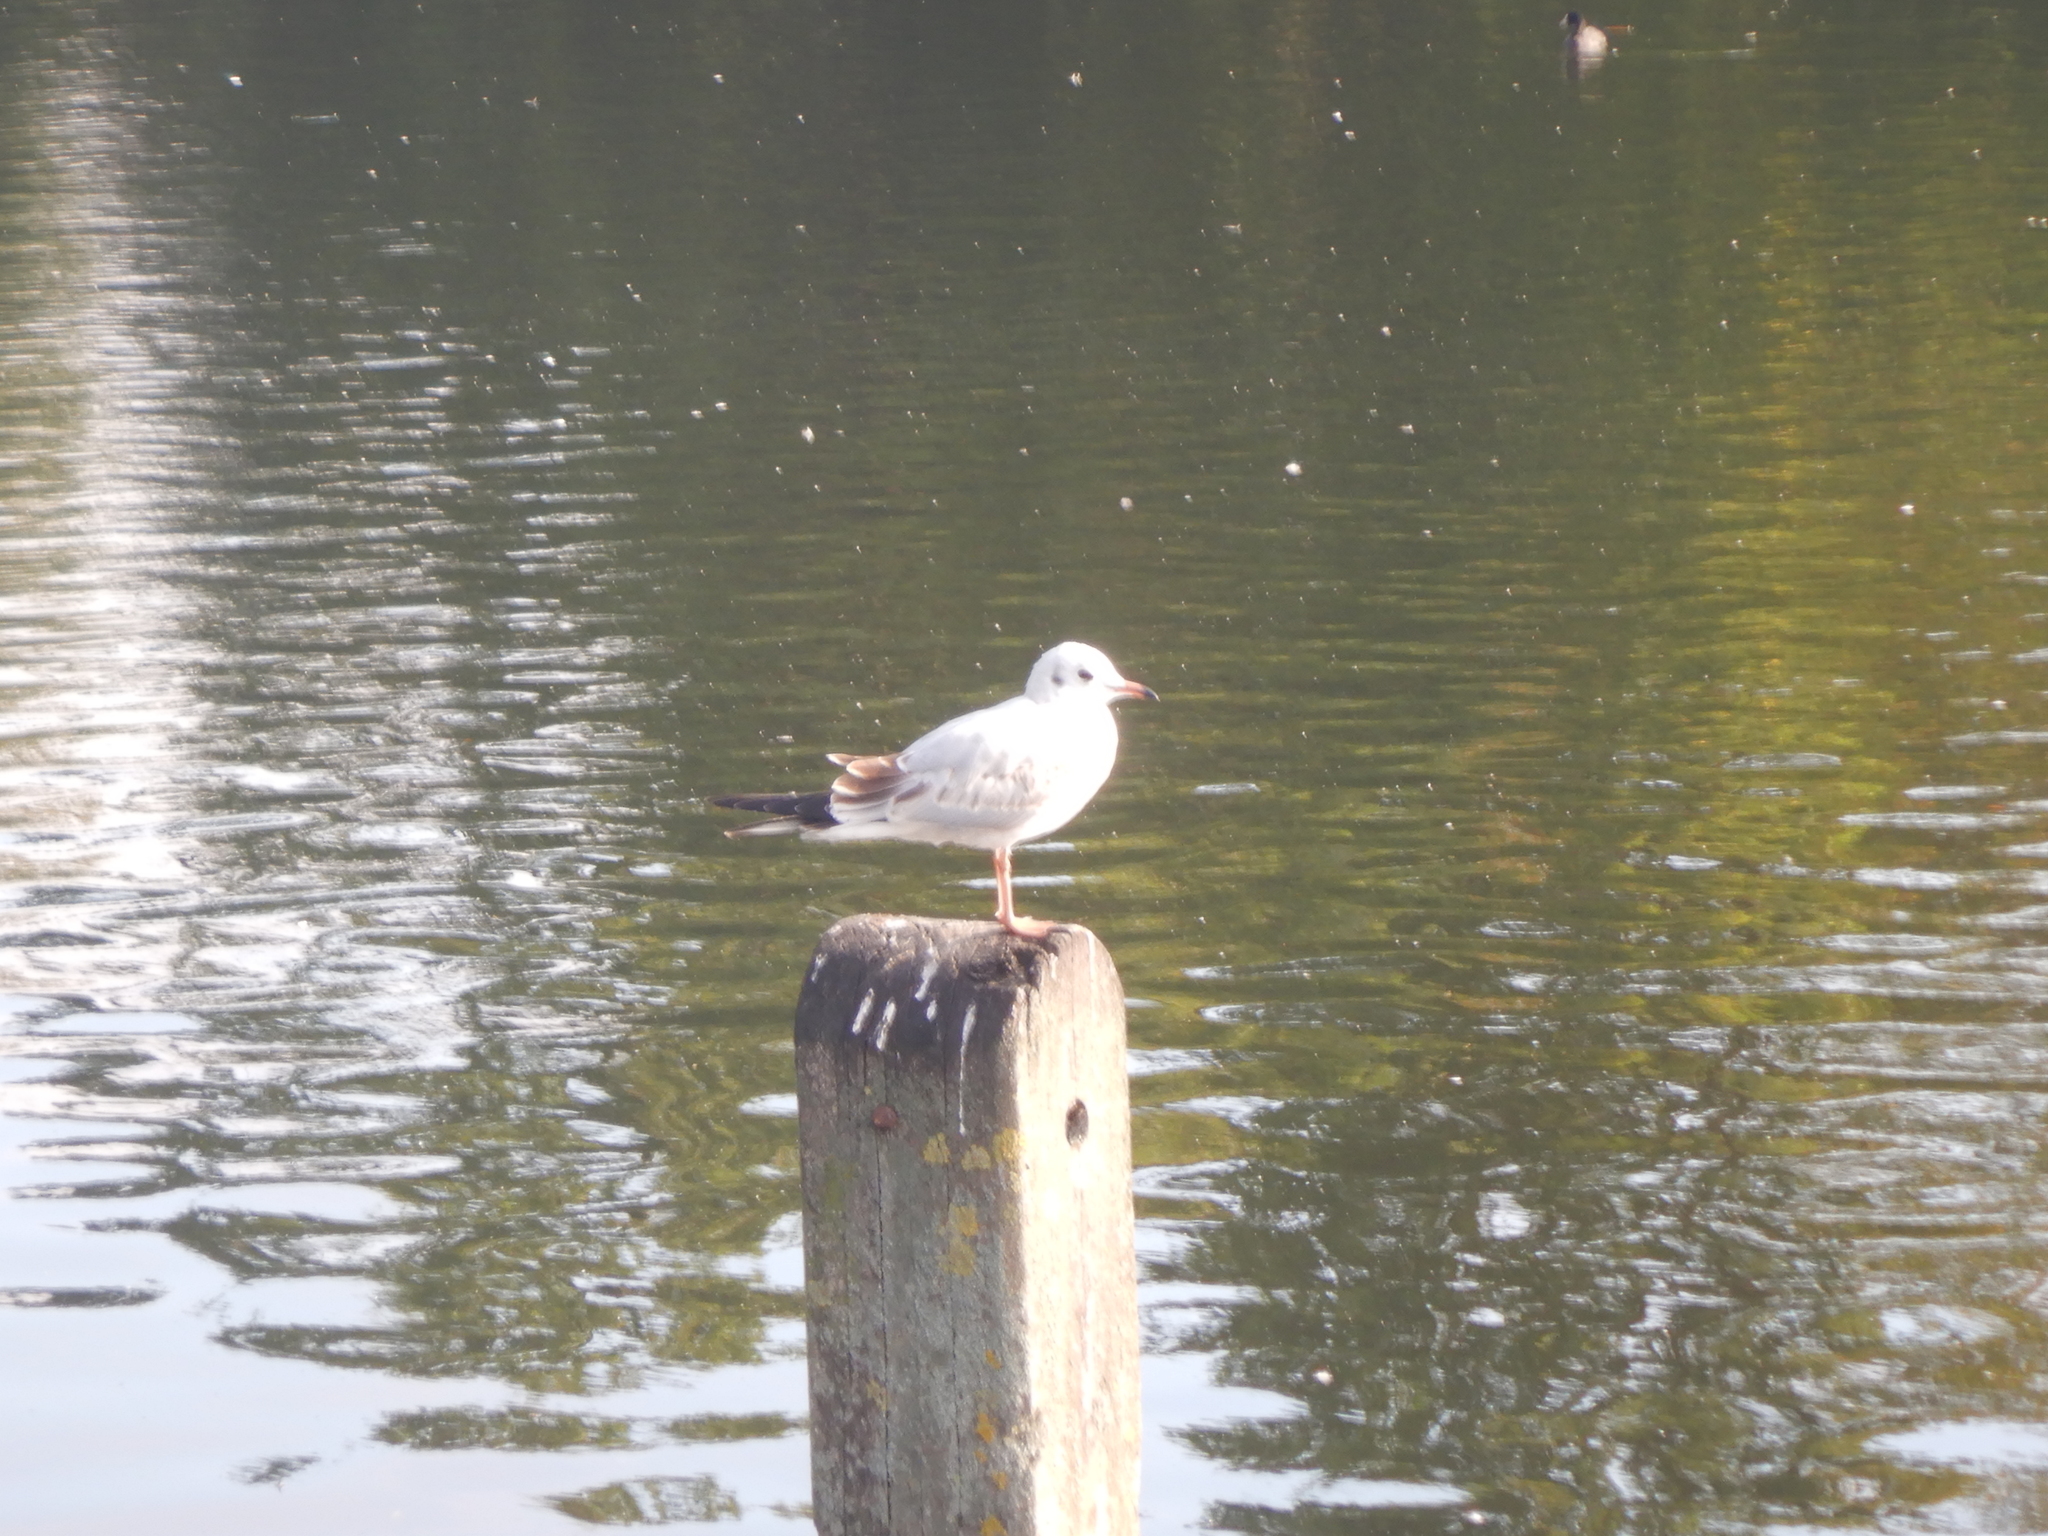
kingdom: Animalia
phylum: Chordata
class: Aves
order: Charadriiformes
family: Laridae
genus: Chroicocephalus
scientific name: Chroicocephalus ridibundus
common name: Black-headed gull
